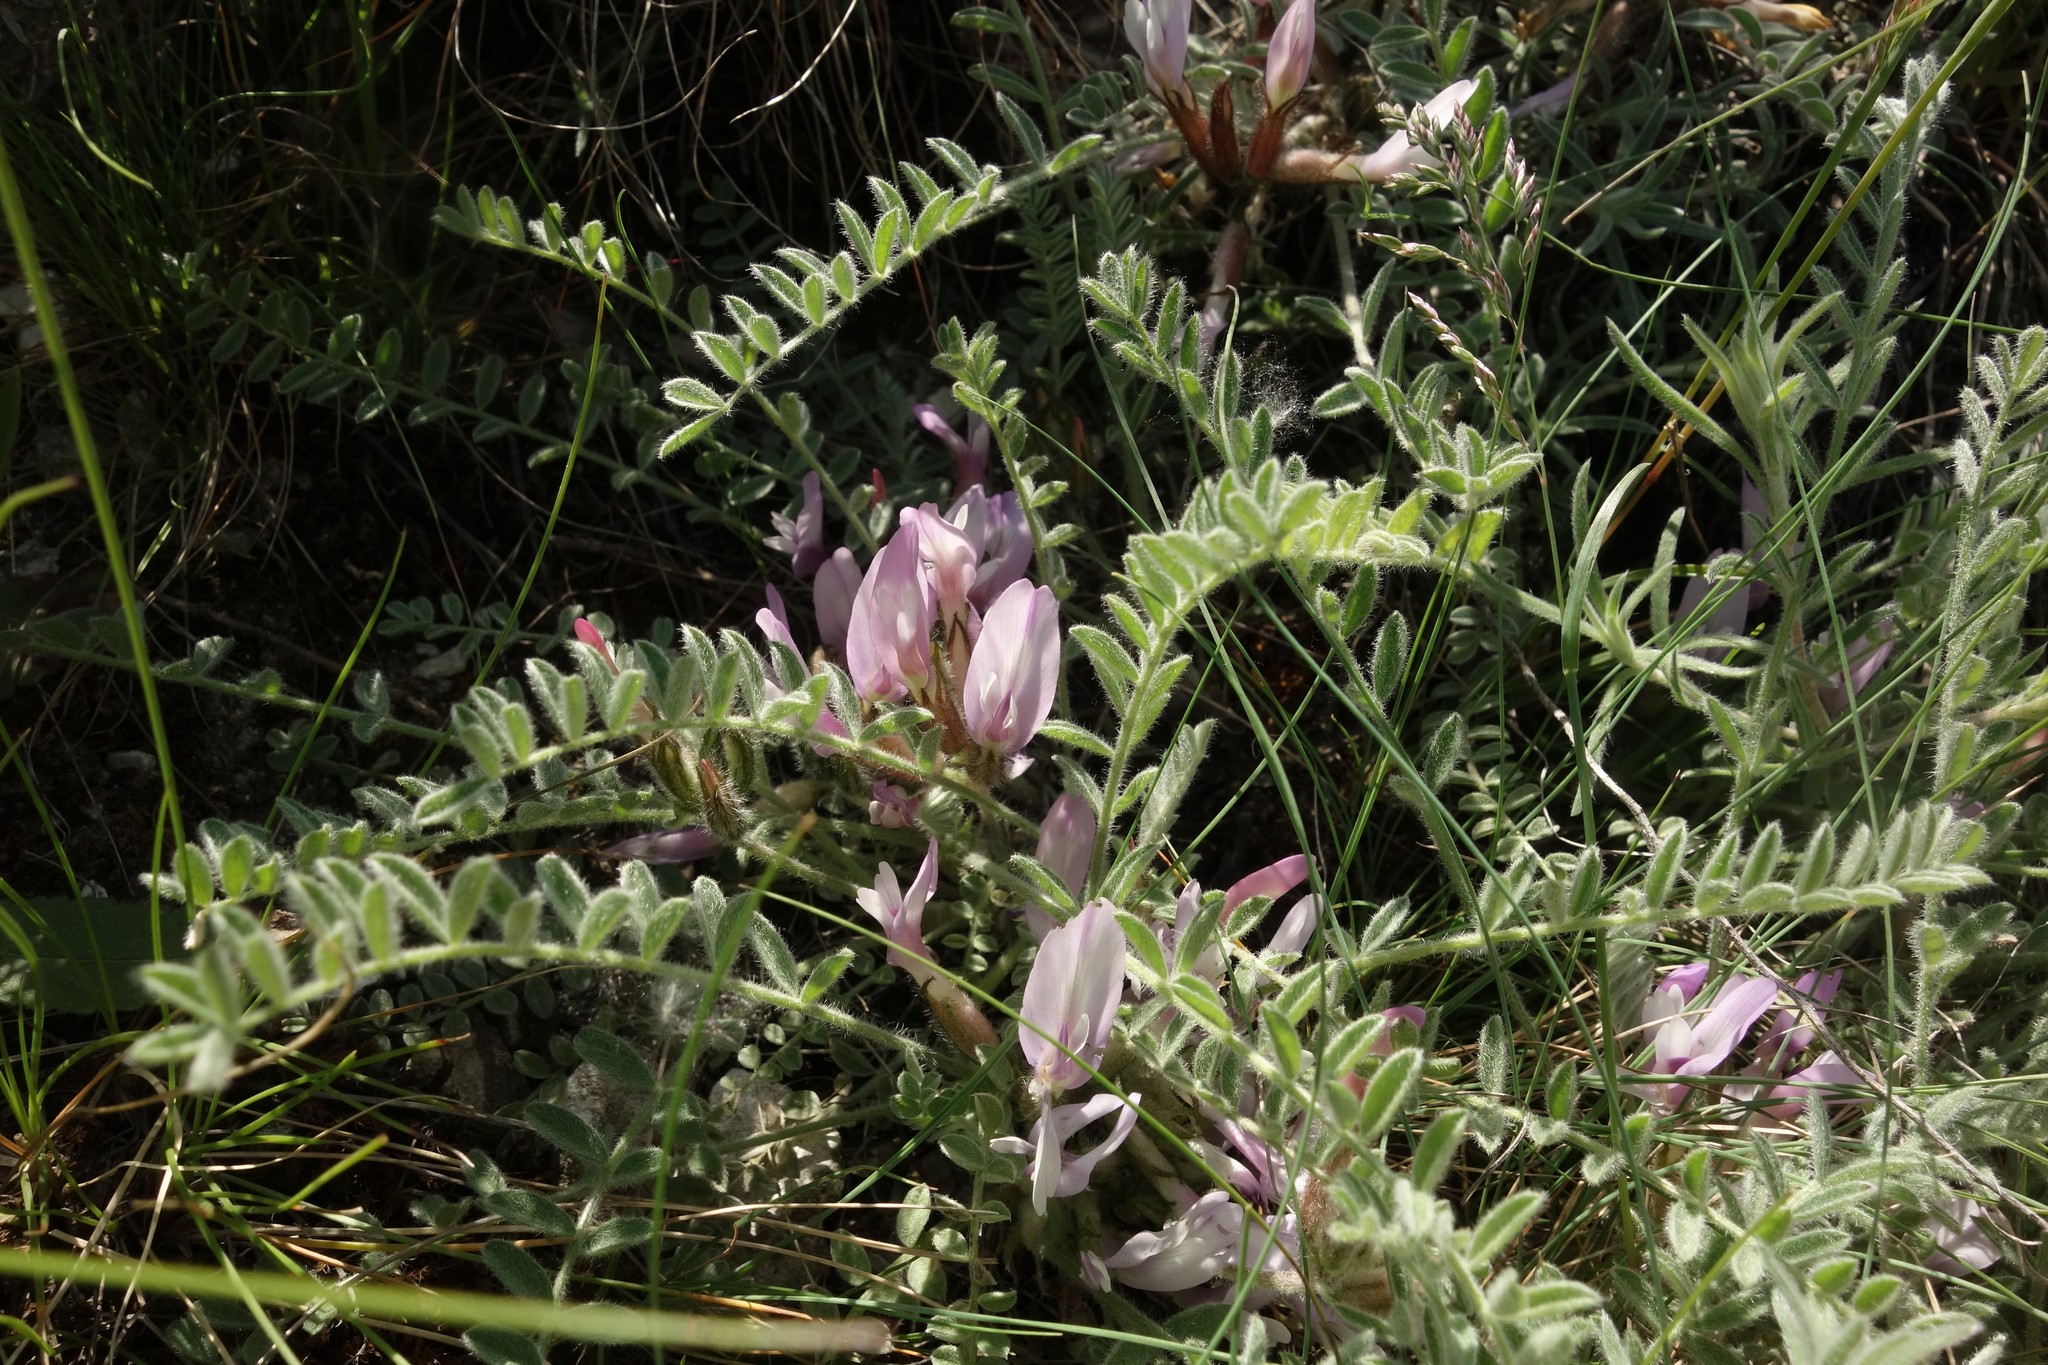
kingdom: Plantae
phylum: Tracheophyta
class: Magnoliopsida
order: Fabales
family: Fabaceae
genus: Astragalus
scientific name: Astragalus testiculatus
